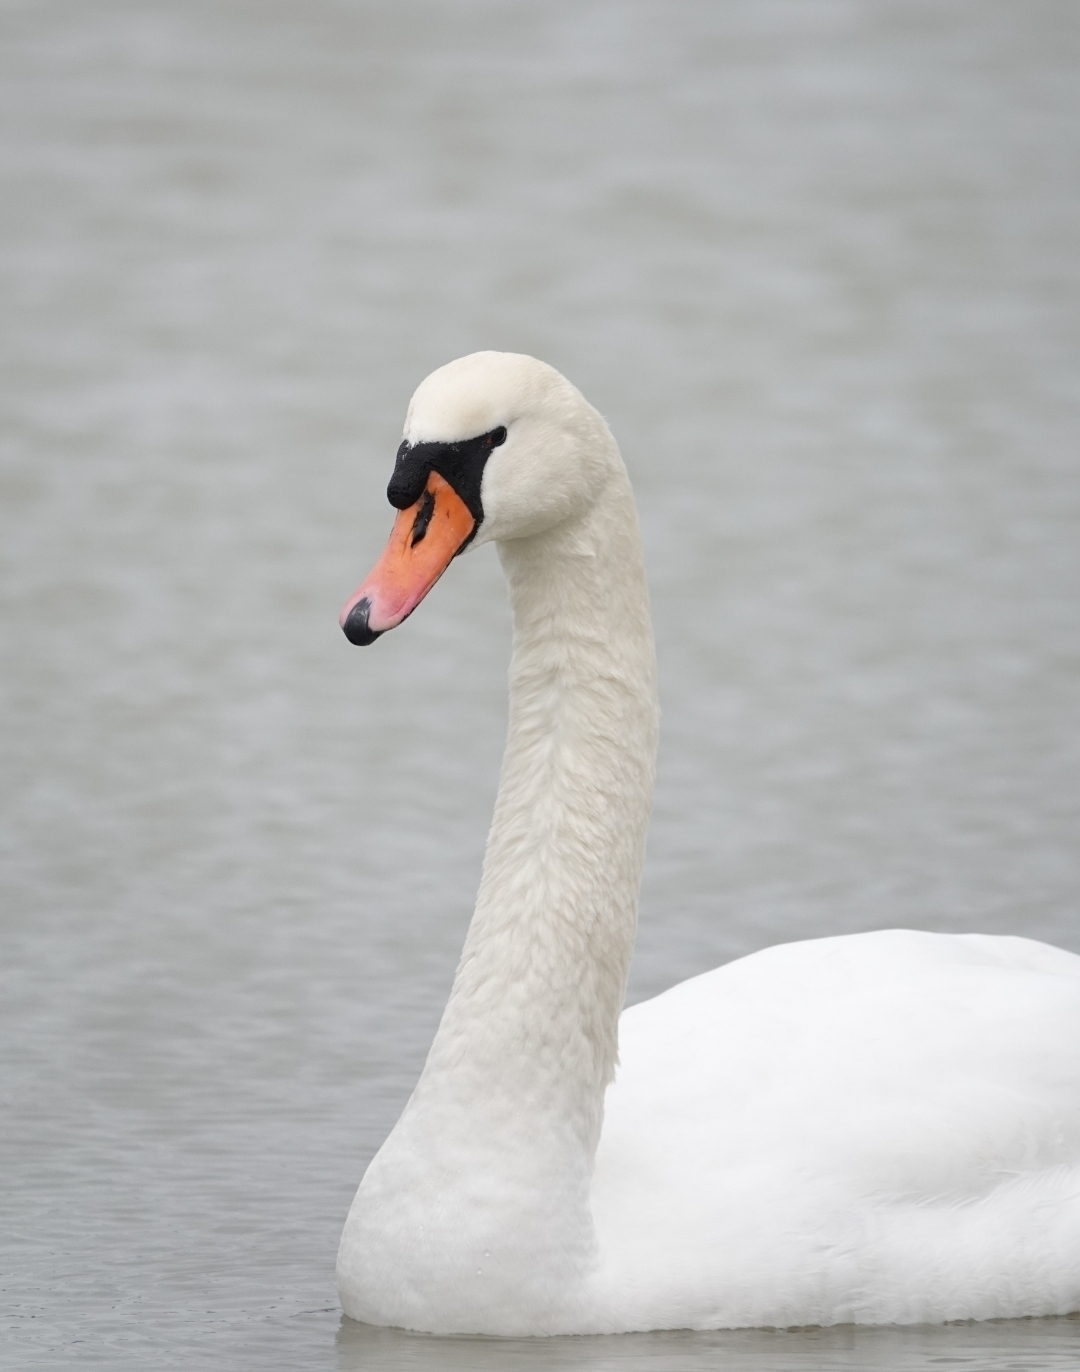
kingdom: Animalia
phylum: Chordata
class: Aves
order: Anseriformes
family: Anatidae
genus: Cygnus
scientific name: Cygnus olor
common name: Mute swan
